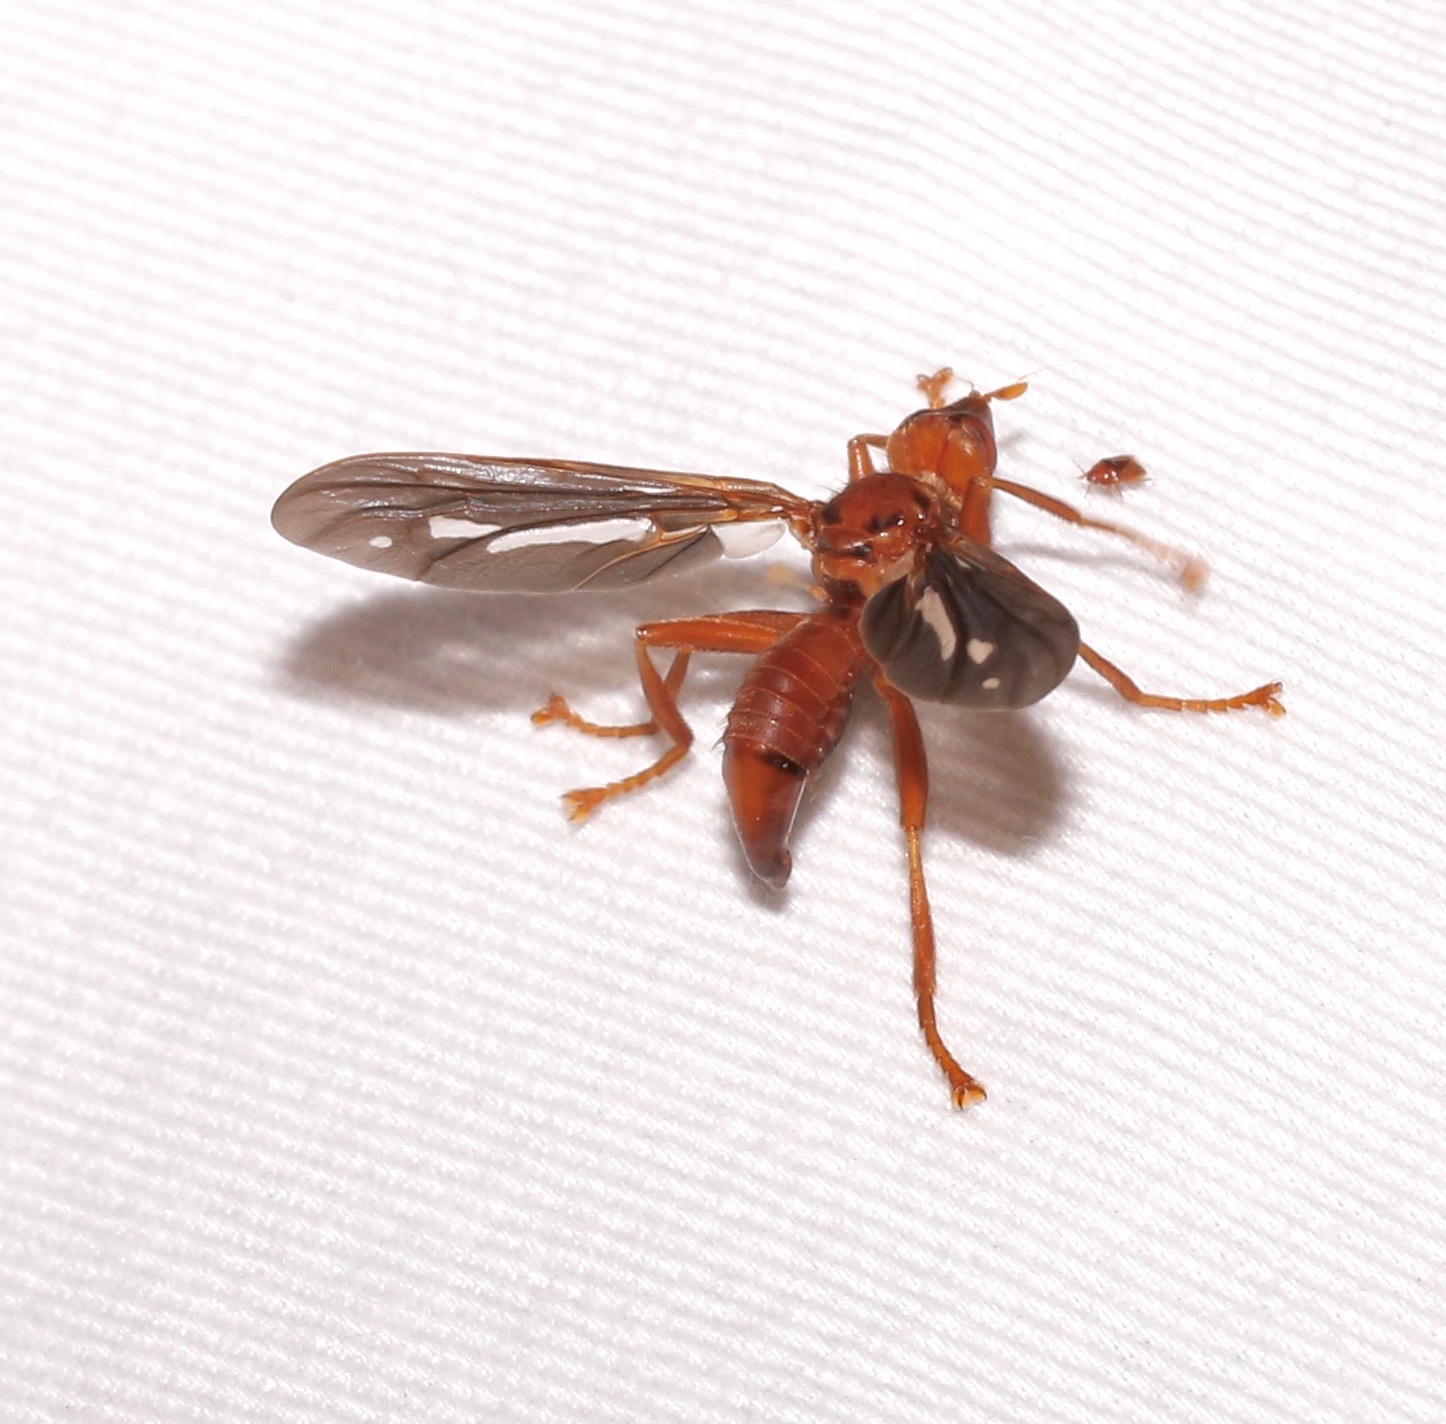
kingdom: Animalia
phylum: Arthropoda
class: Insecta
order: Diptera
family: Pyrgotidae
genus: Pyrgota
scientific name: Pyrgota fenestrata
